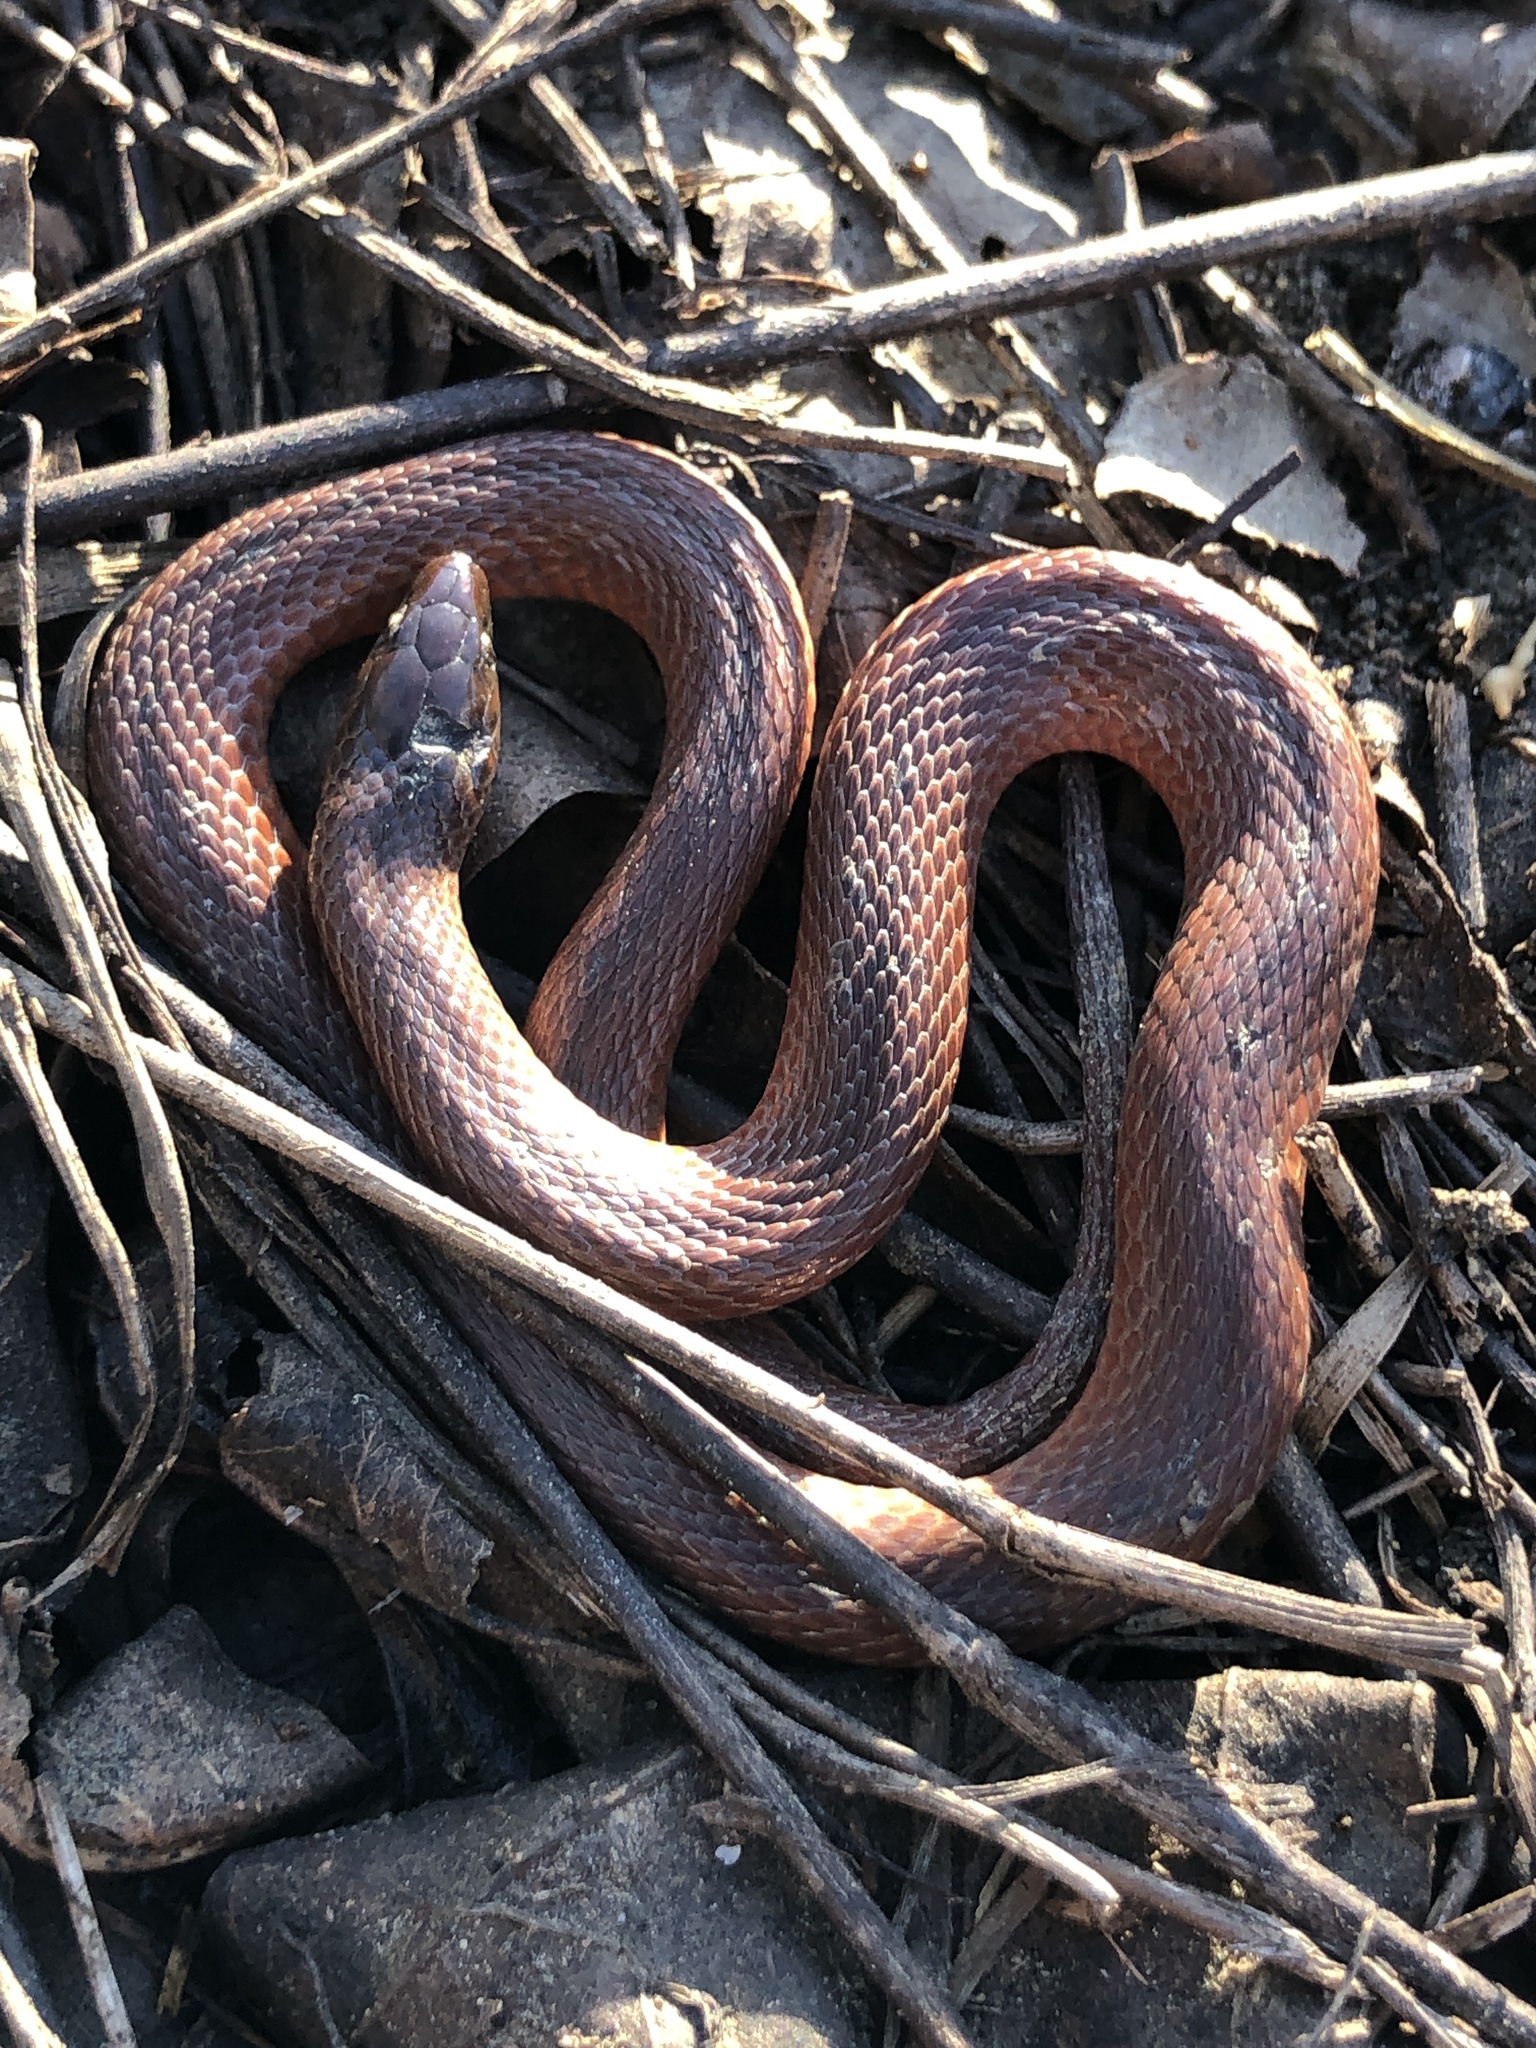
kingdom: Animalia
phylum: Chordata
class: Squamata
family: Colubridae
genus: Haldea
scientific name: Haldea striatula
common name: Rough earth snake
